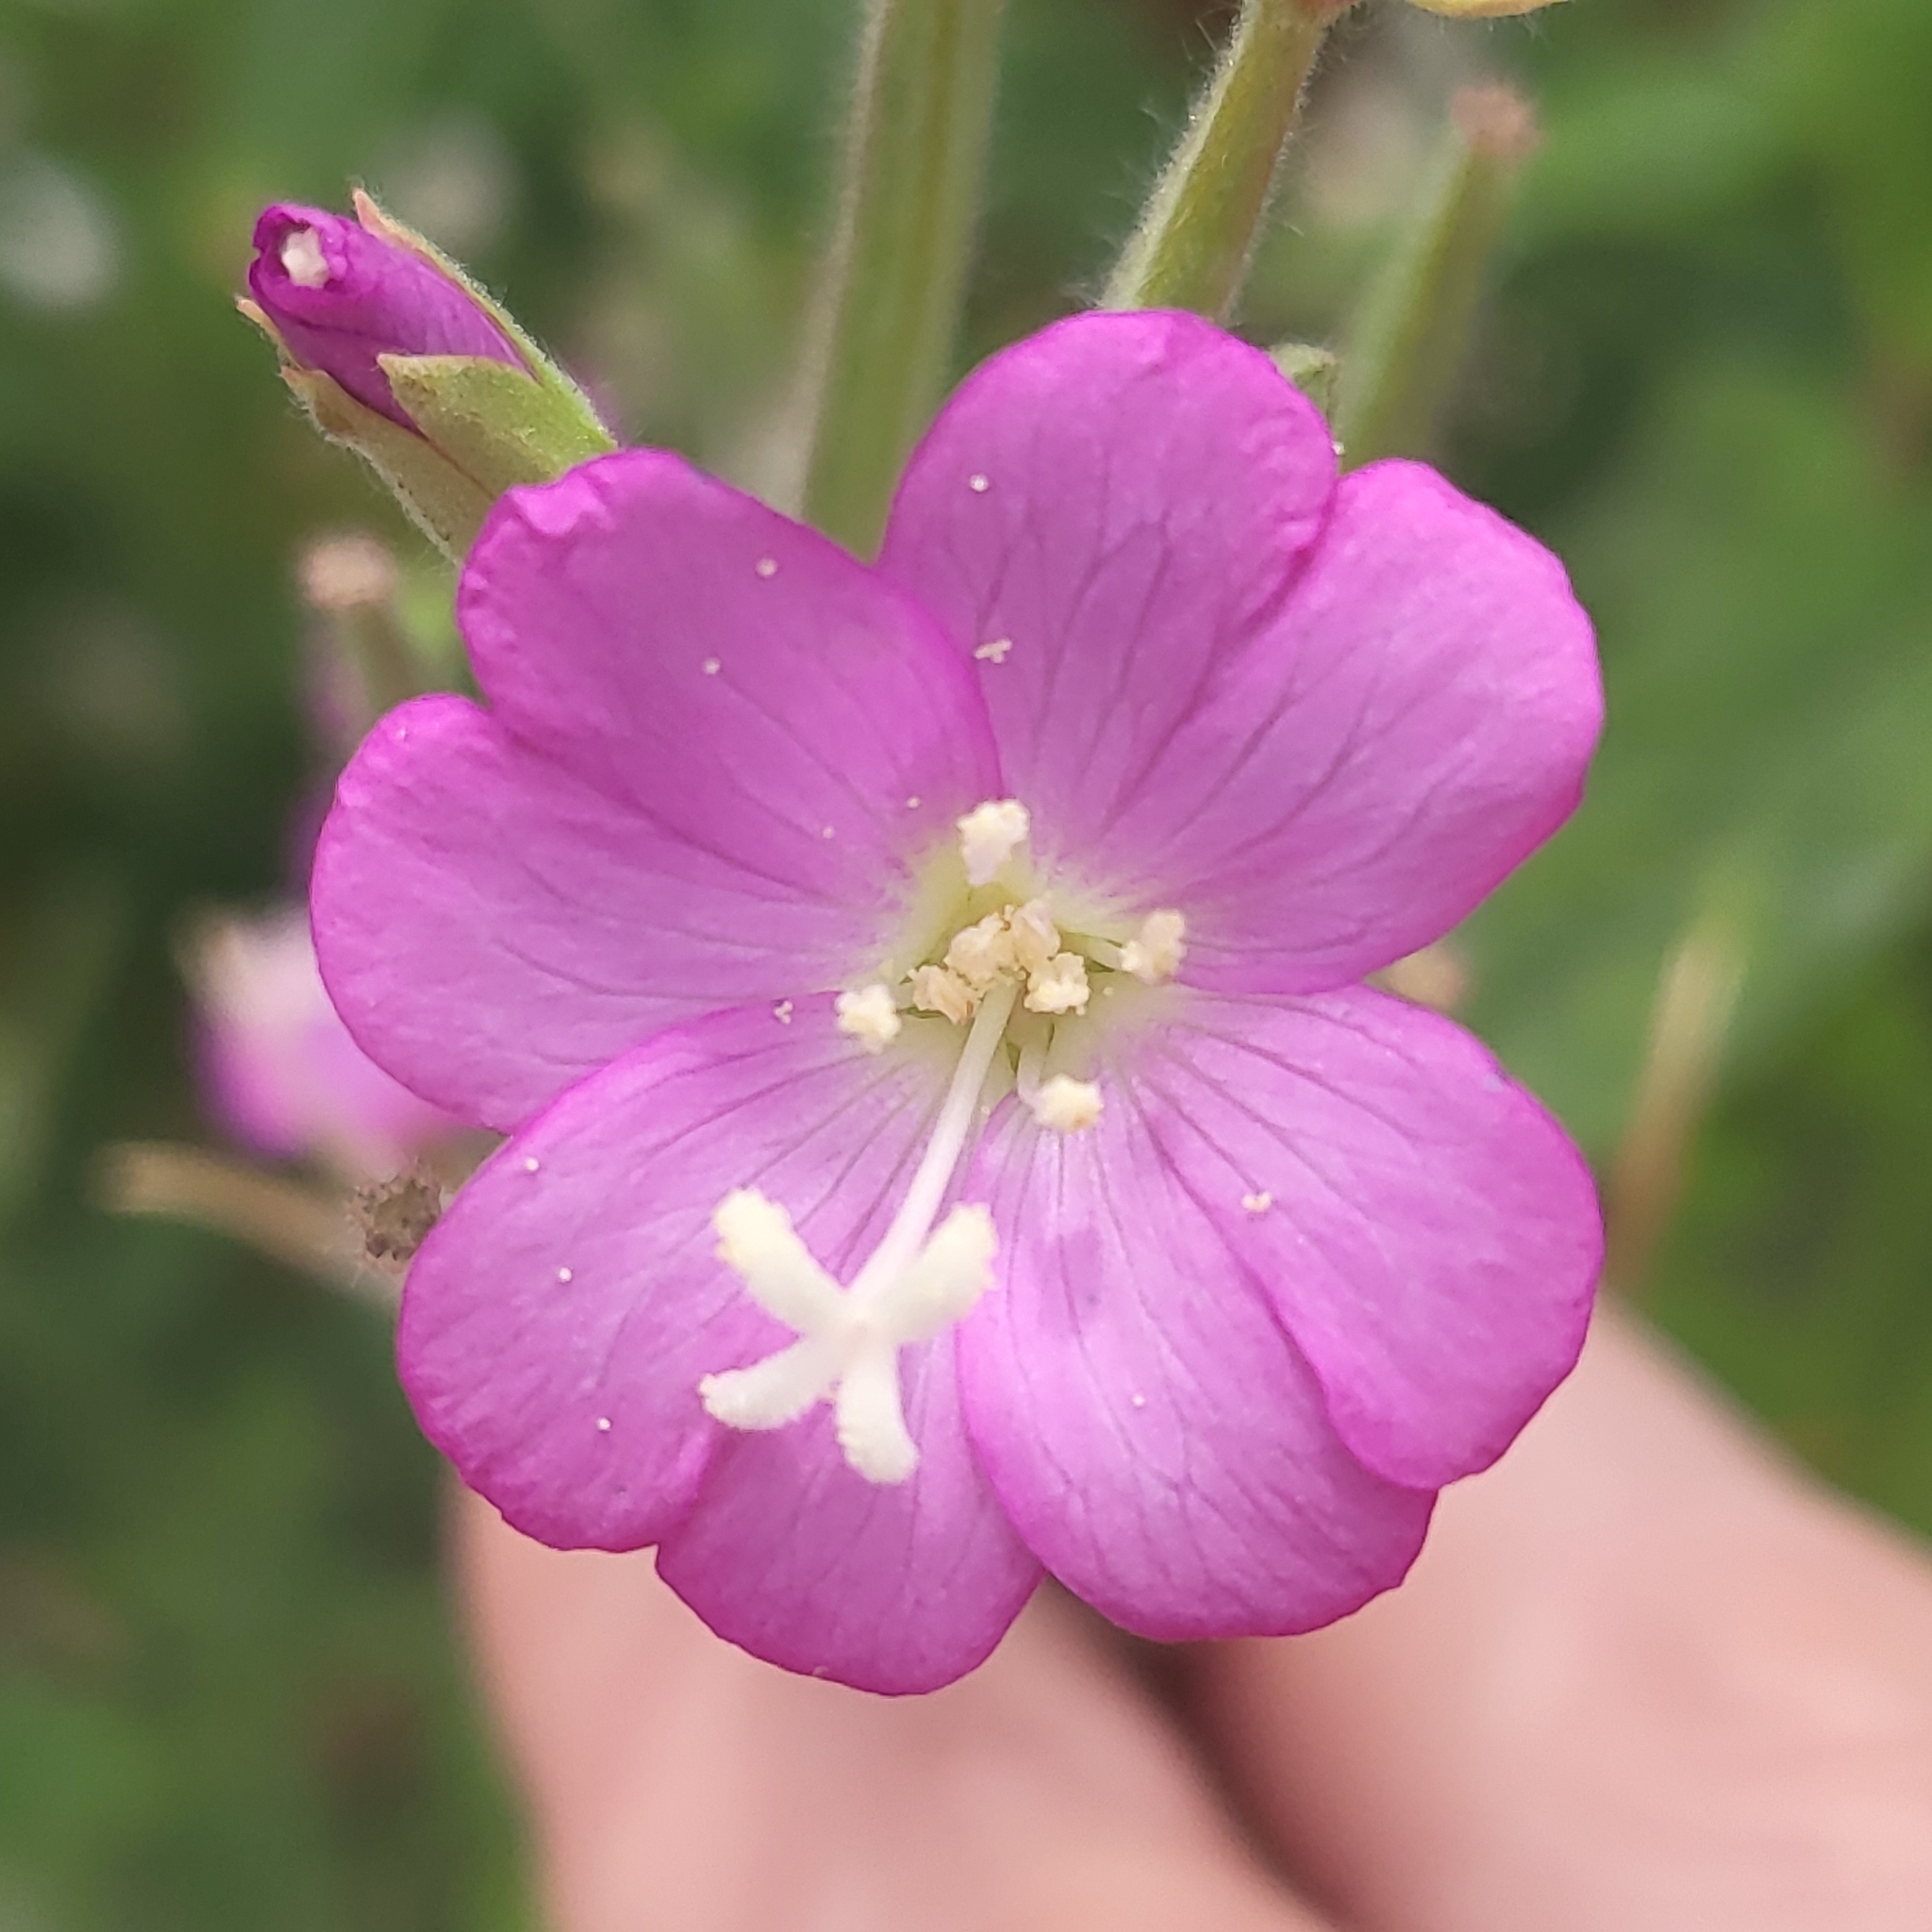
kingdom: Plantae
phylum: Tracheophyta
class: Magnoliopsida
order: Myrtales
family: Onagraceae
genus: Epilobium
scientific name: Epilobium hirsutum
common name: Great willowherb
